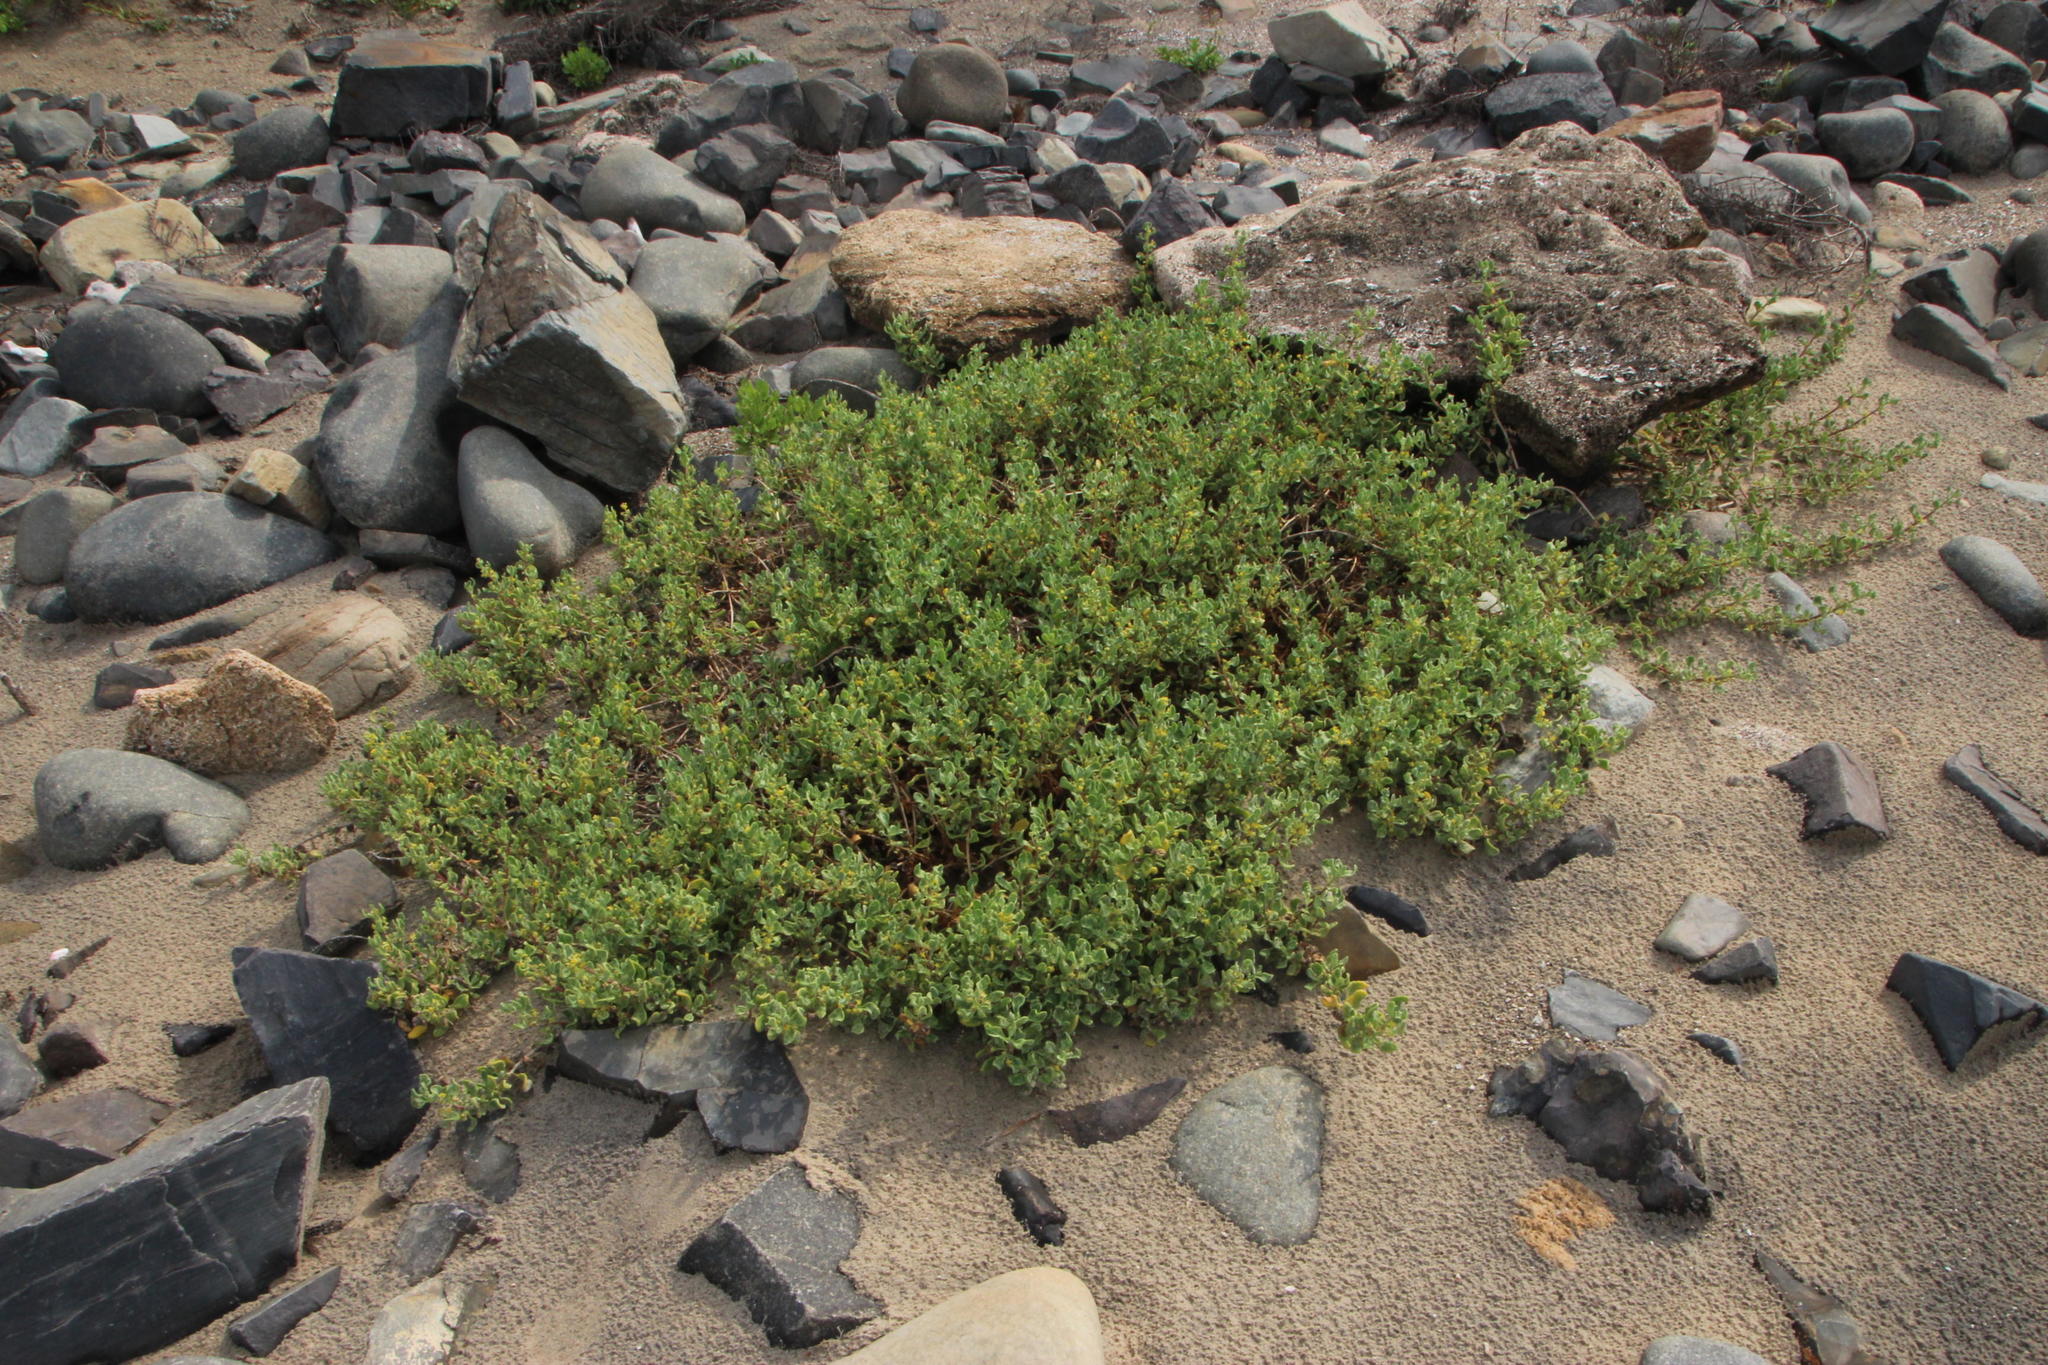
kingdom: Plantae
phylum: Tracheophyta
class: Magnoliopsida
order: Caryophyllales
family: Aizoaceae
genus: Tetragonia
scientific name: Tetragonia decumbens
